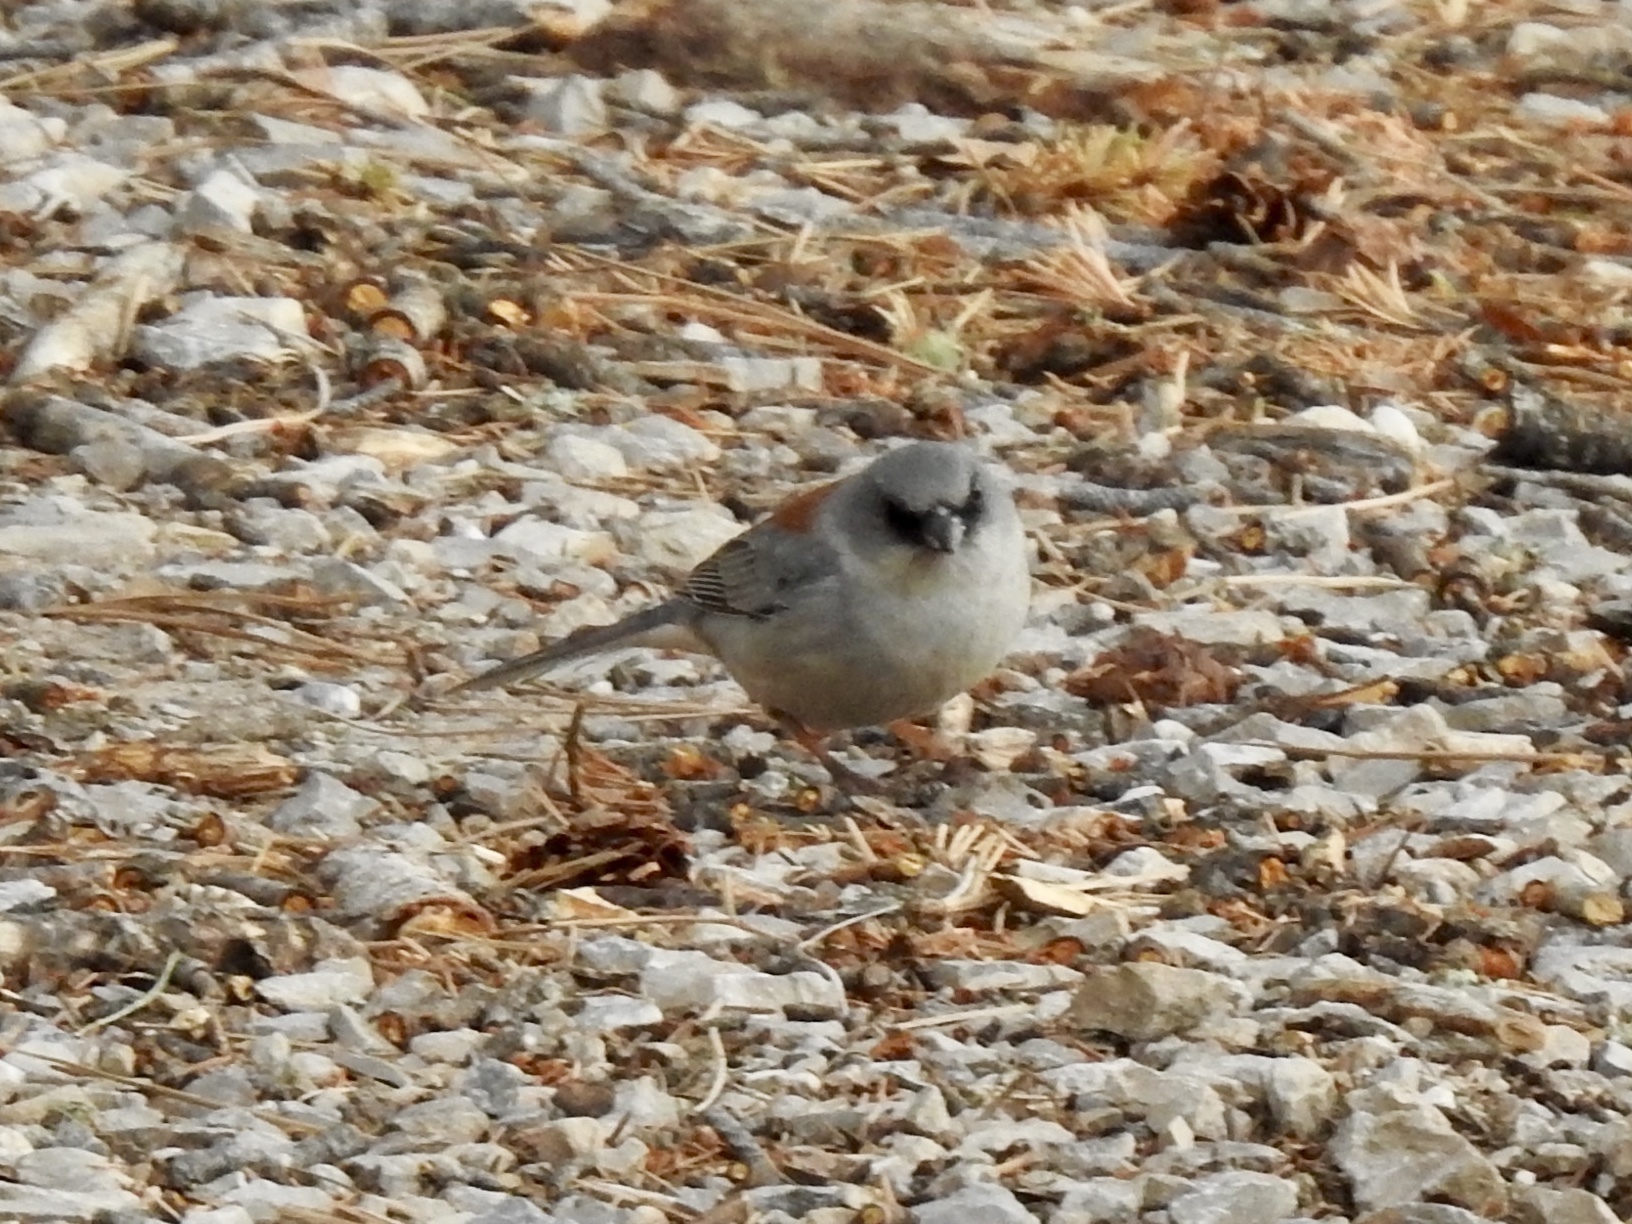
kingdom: Animalia
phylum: Chordata
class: Aves
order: Passeriformes
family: Passerellidae
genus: Junco
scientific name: Junco hyemalis
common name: Dark-eyed junco
